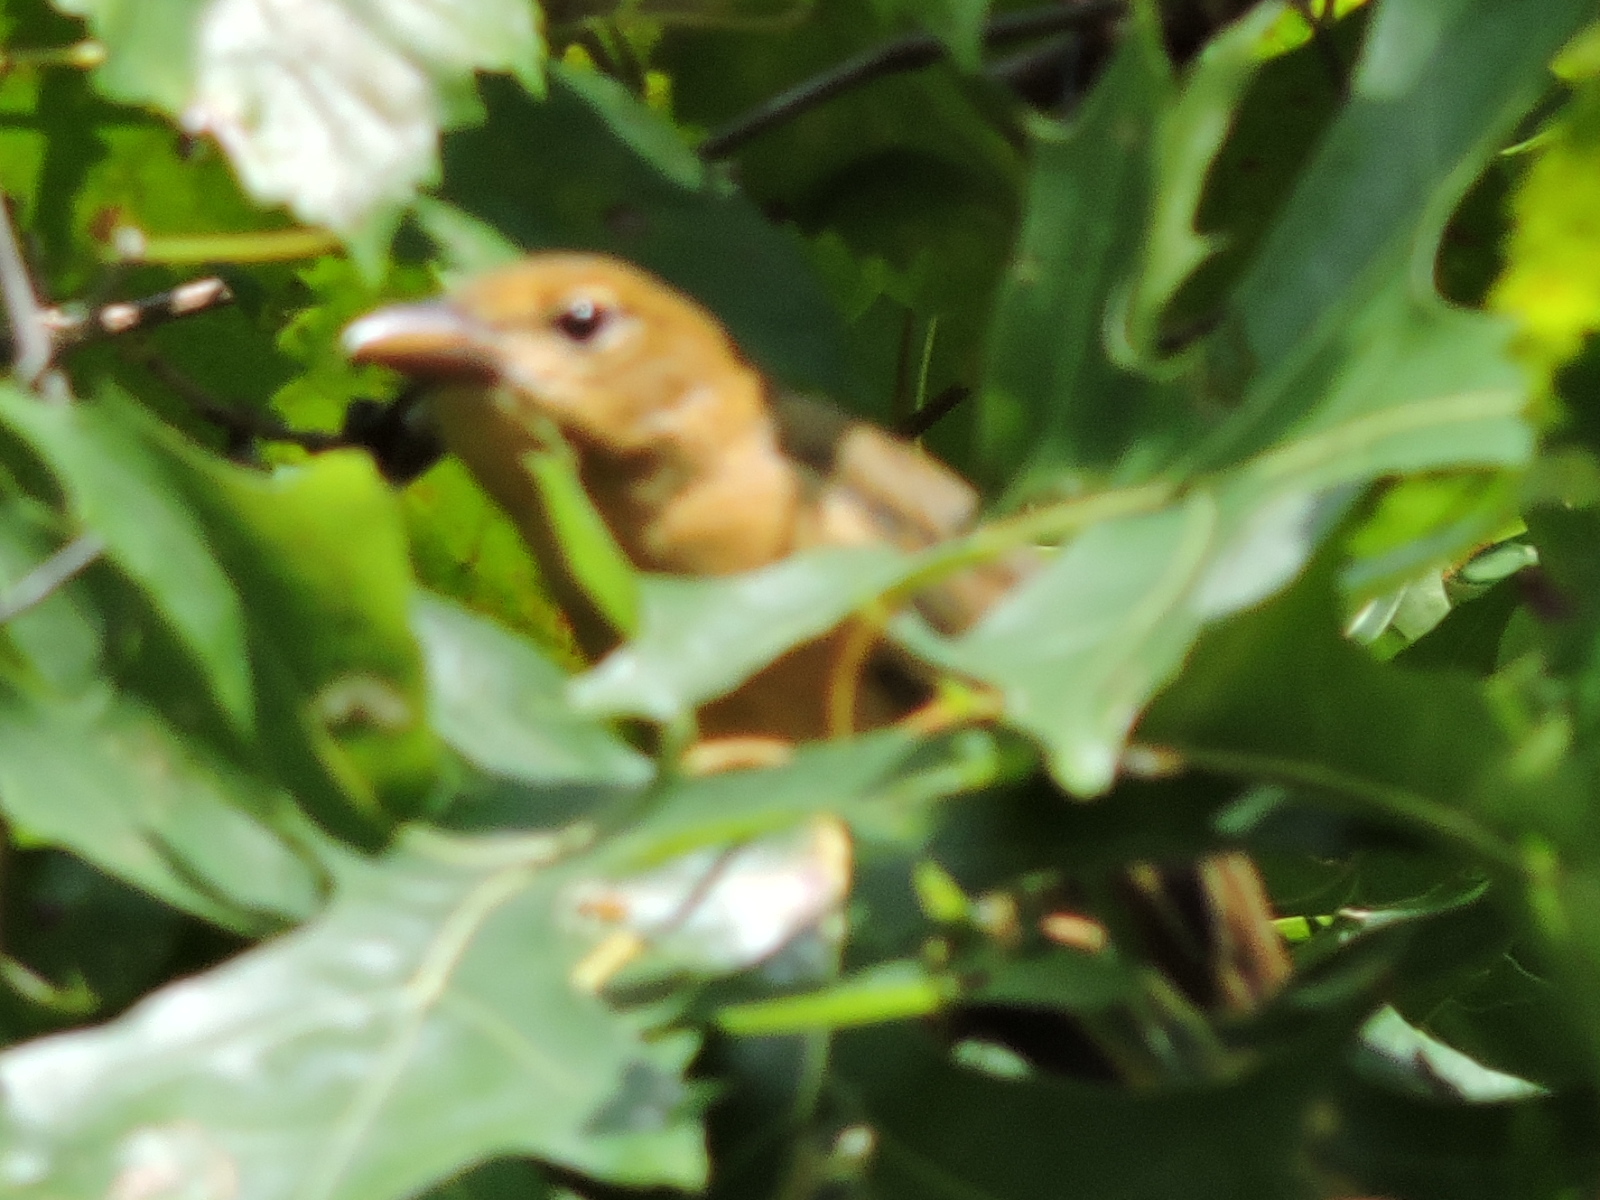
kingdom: Animalia
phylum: Chordata
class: Aves
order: Passeriformes
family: Cardinalidae
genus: Piranga
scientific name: Piranga rubra
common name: Summer tanager
